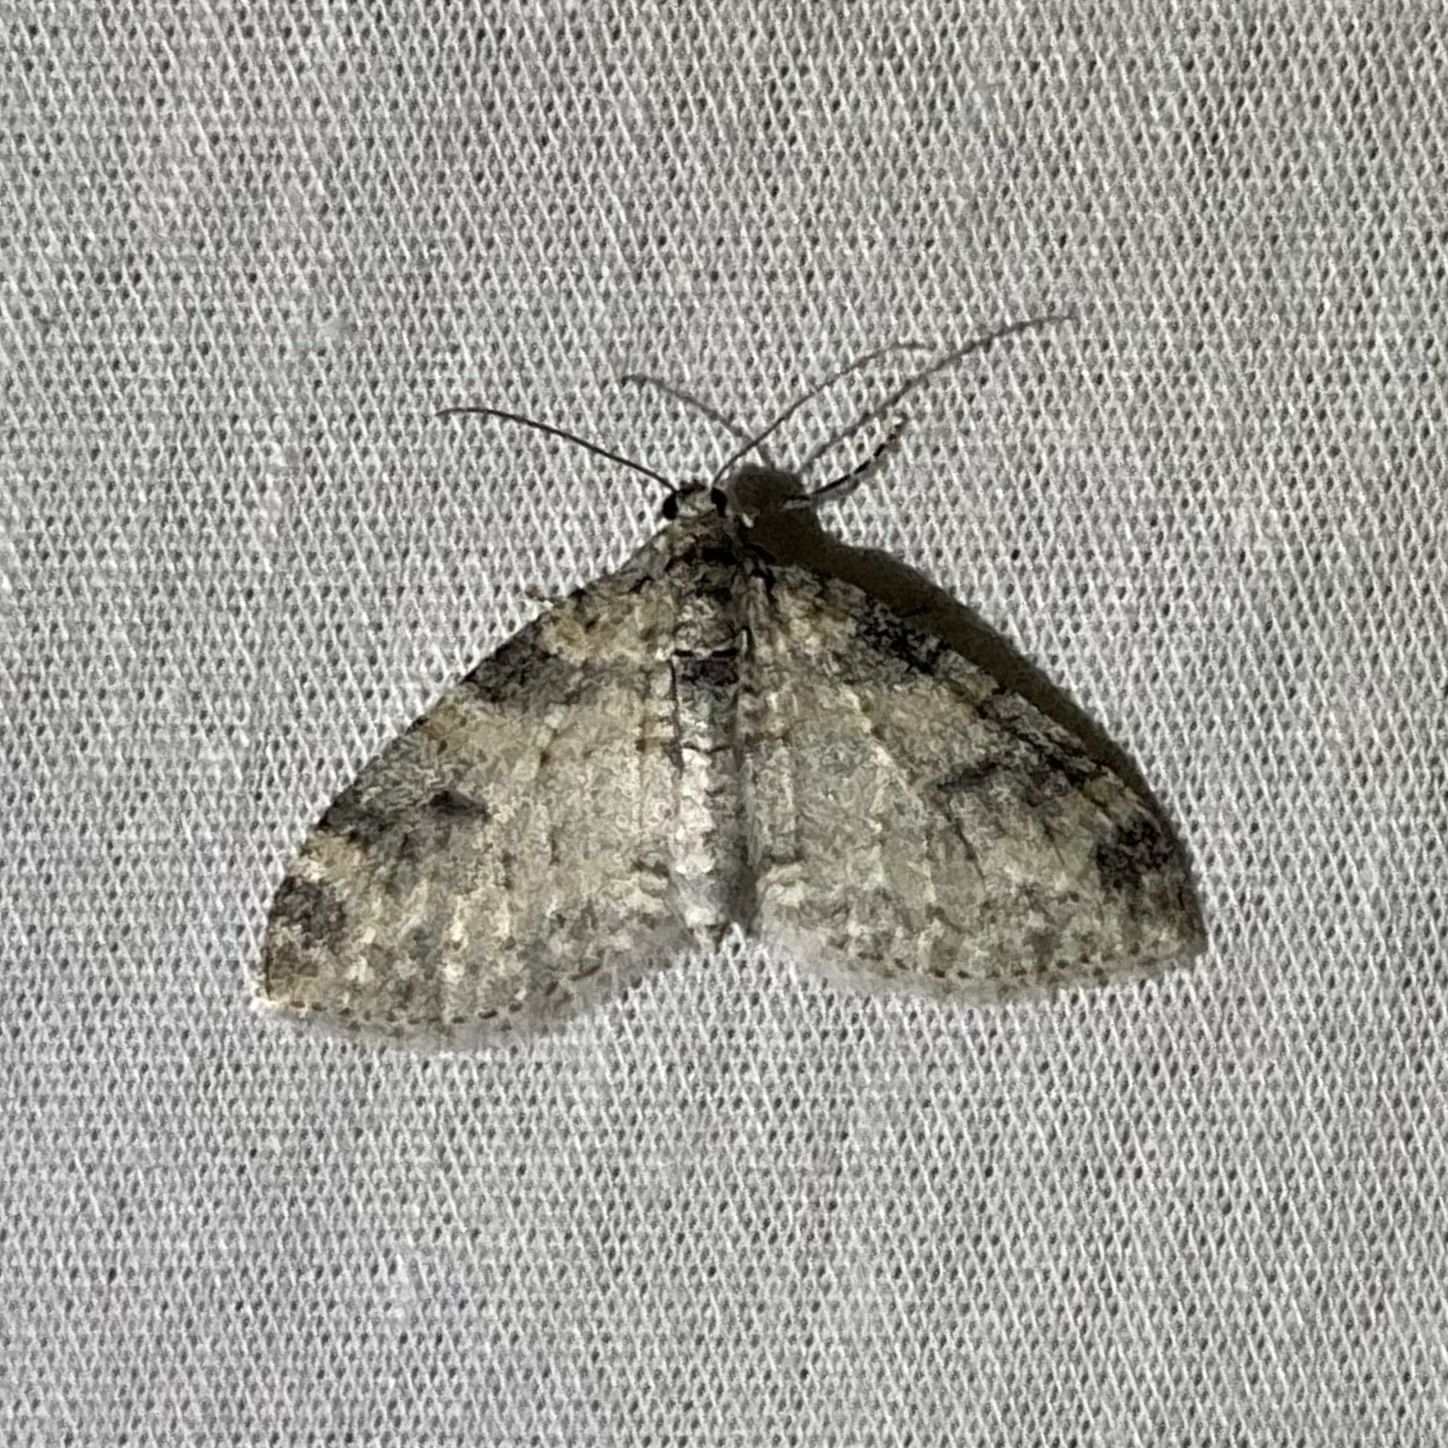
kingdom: Animalia
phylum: Arthropoda
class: Insecta
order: Lepidoptera
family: Geometridae
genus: Lobophora
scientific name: Lobophora nivigerata
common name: Powdered bigwing
